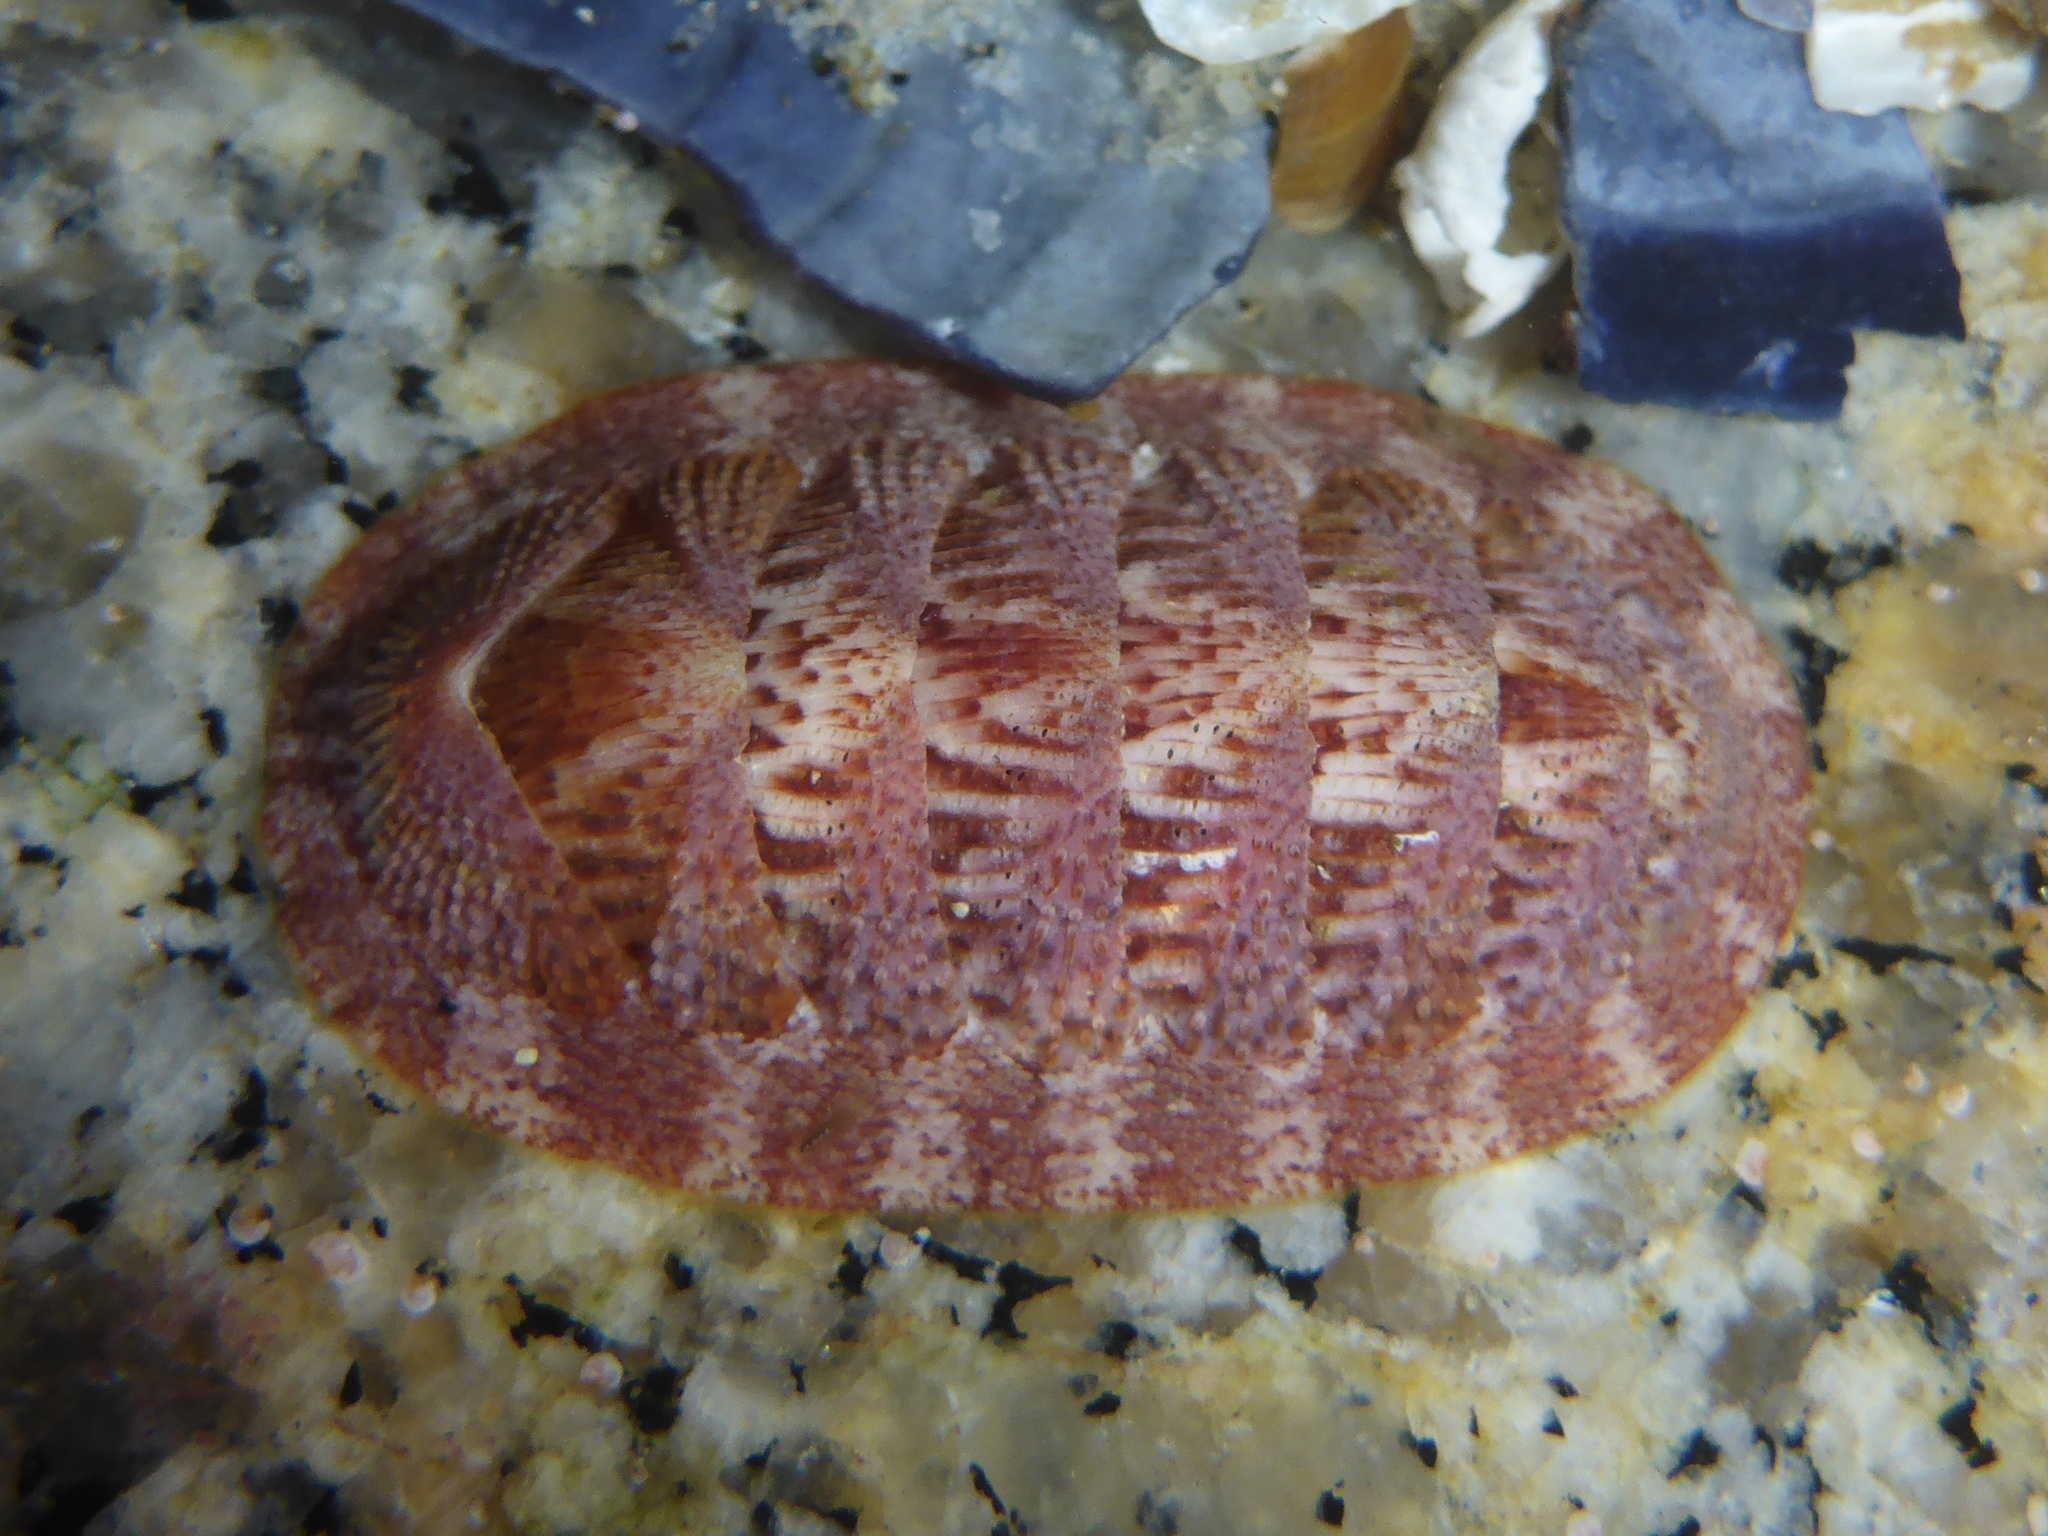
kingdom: Animalia
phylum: Mollusca
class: Polyplacophora
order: Chitonida
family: Ischnochitonidae
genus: Lepidozona
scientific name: Lepidozona mertensii
